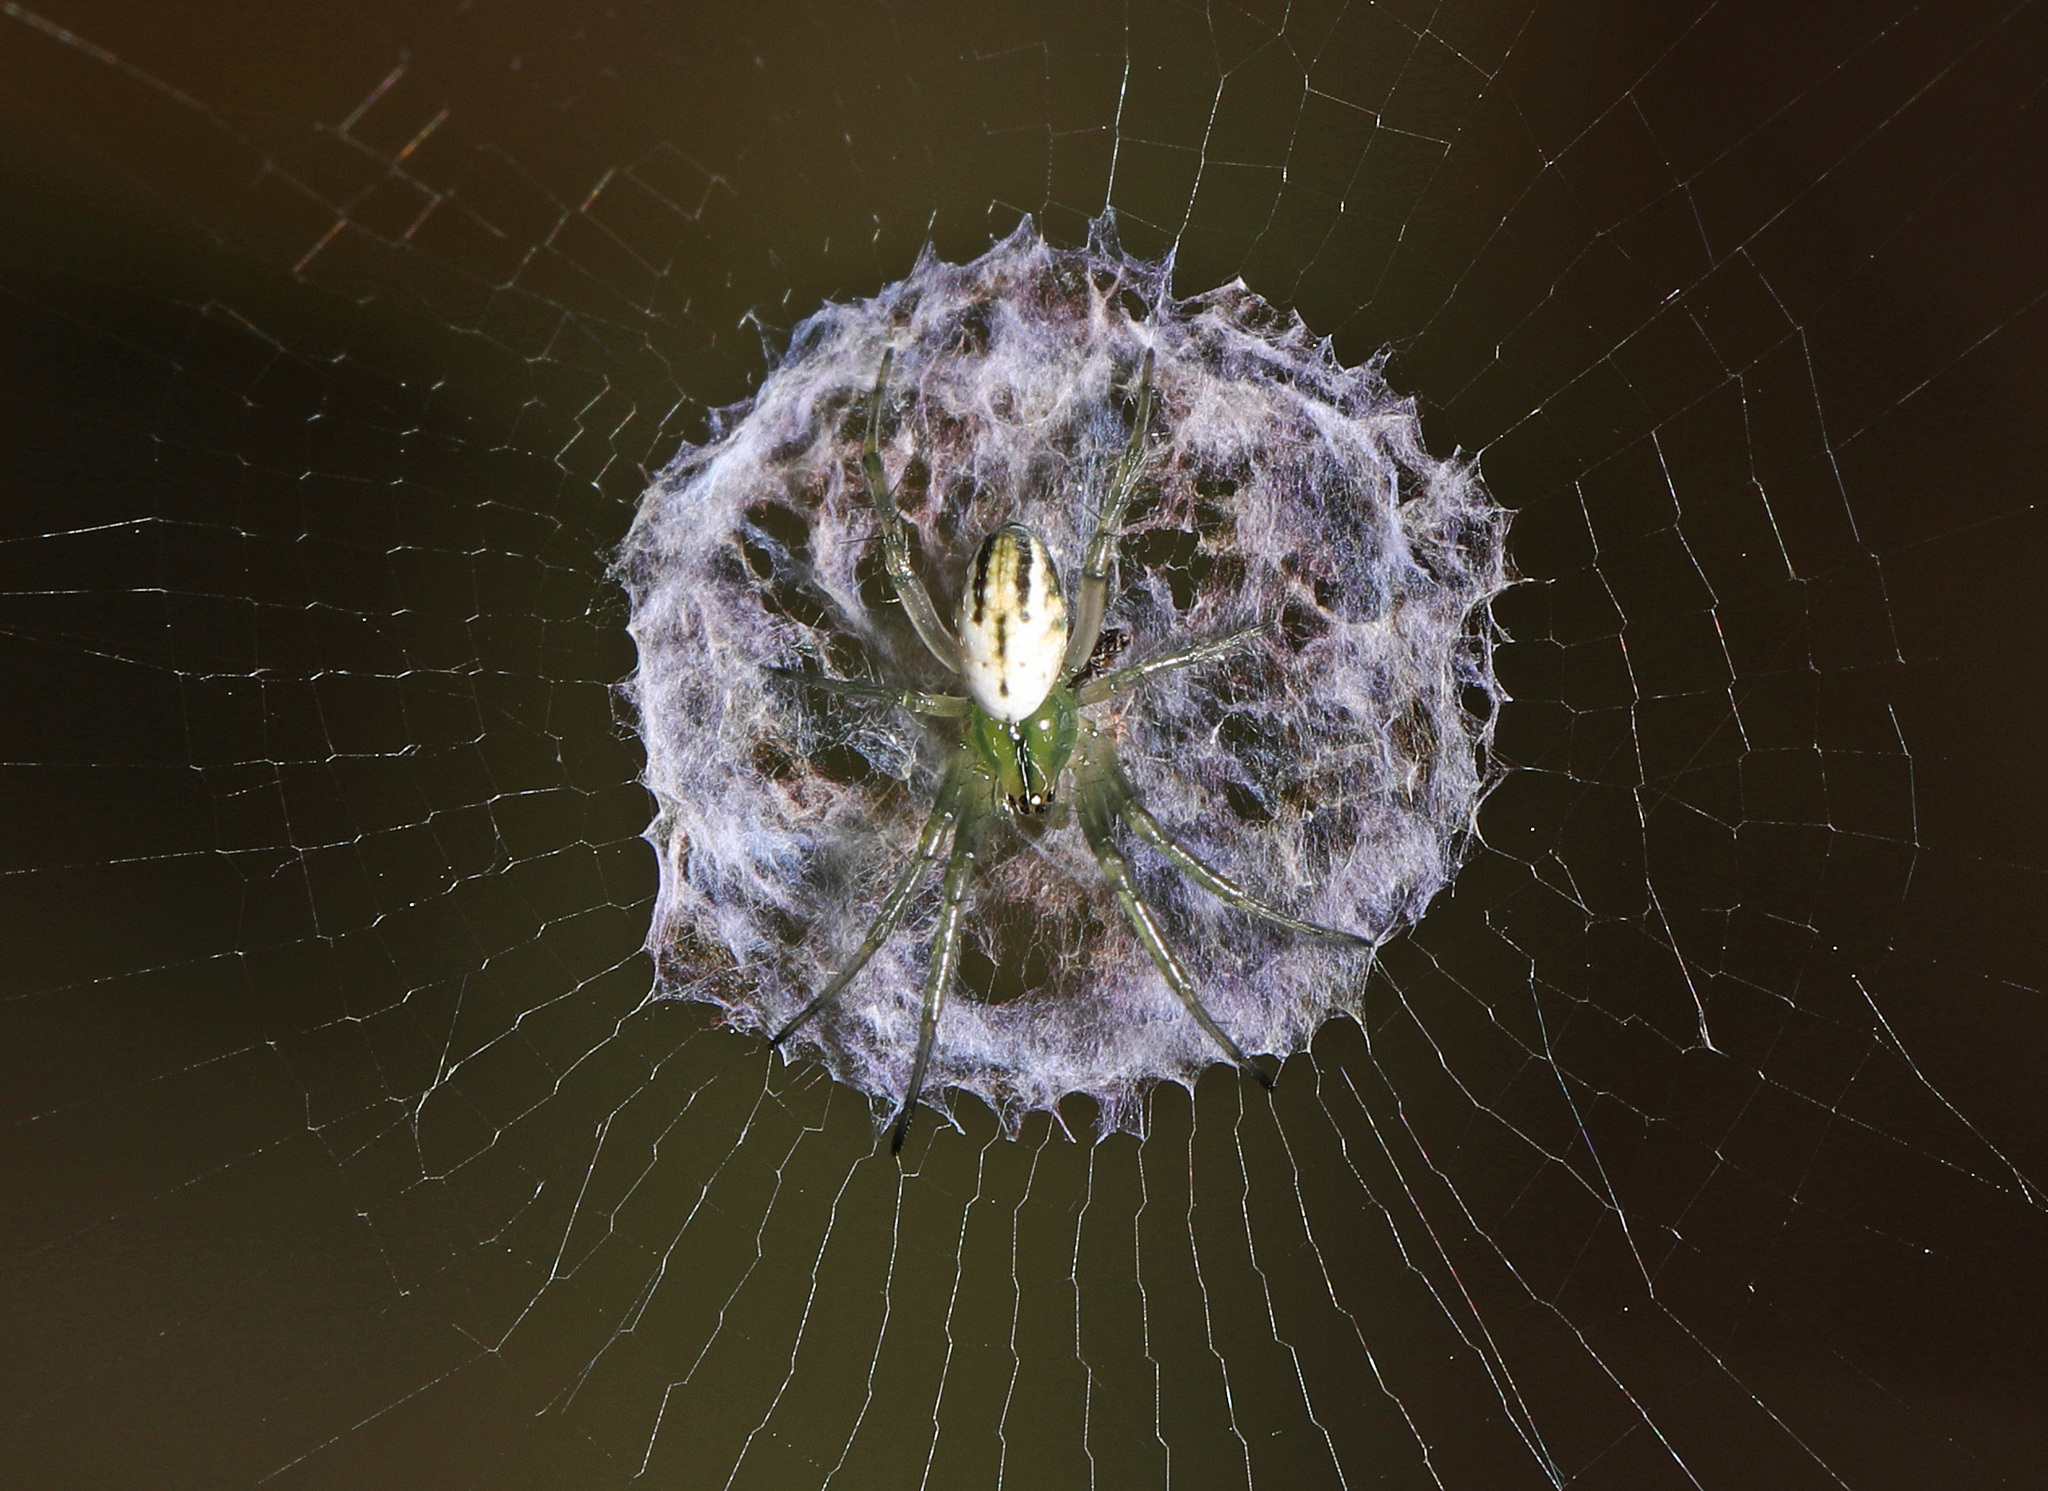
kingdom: Animalia
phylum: Arthropoda
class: Arachnida
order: Araneae
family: Araneidae
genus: Mangora
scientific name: Mangora gibberosa
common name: Lined orbweaver
